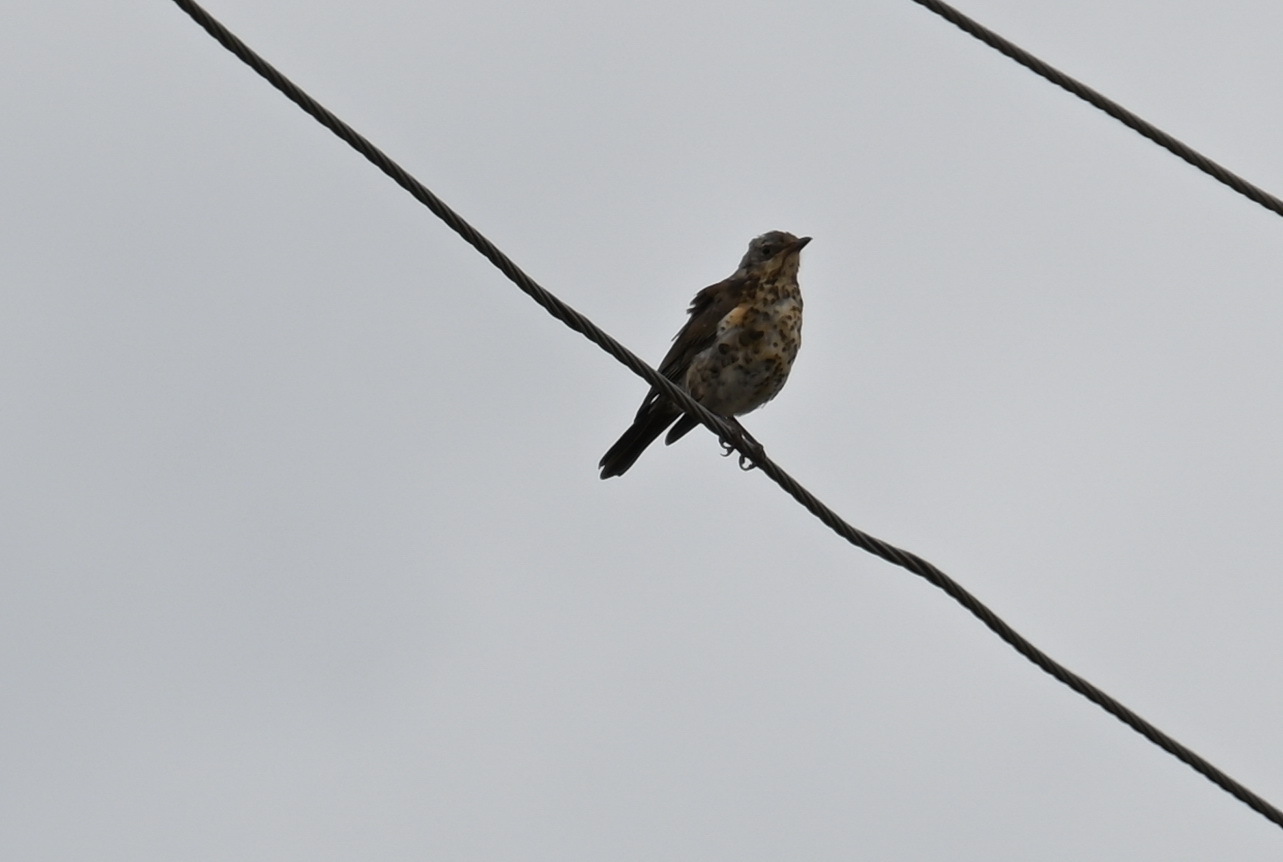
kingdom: Animalia
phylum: Chordata
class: Aves
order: Passeriformes
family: Turdidae
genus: Turdus
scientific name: Turdus pilaris
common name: Fieldfare
